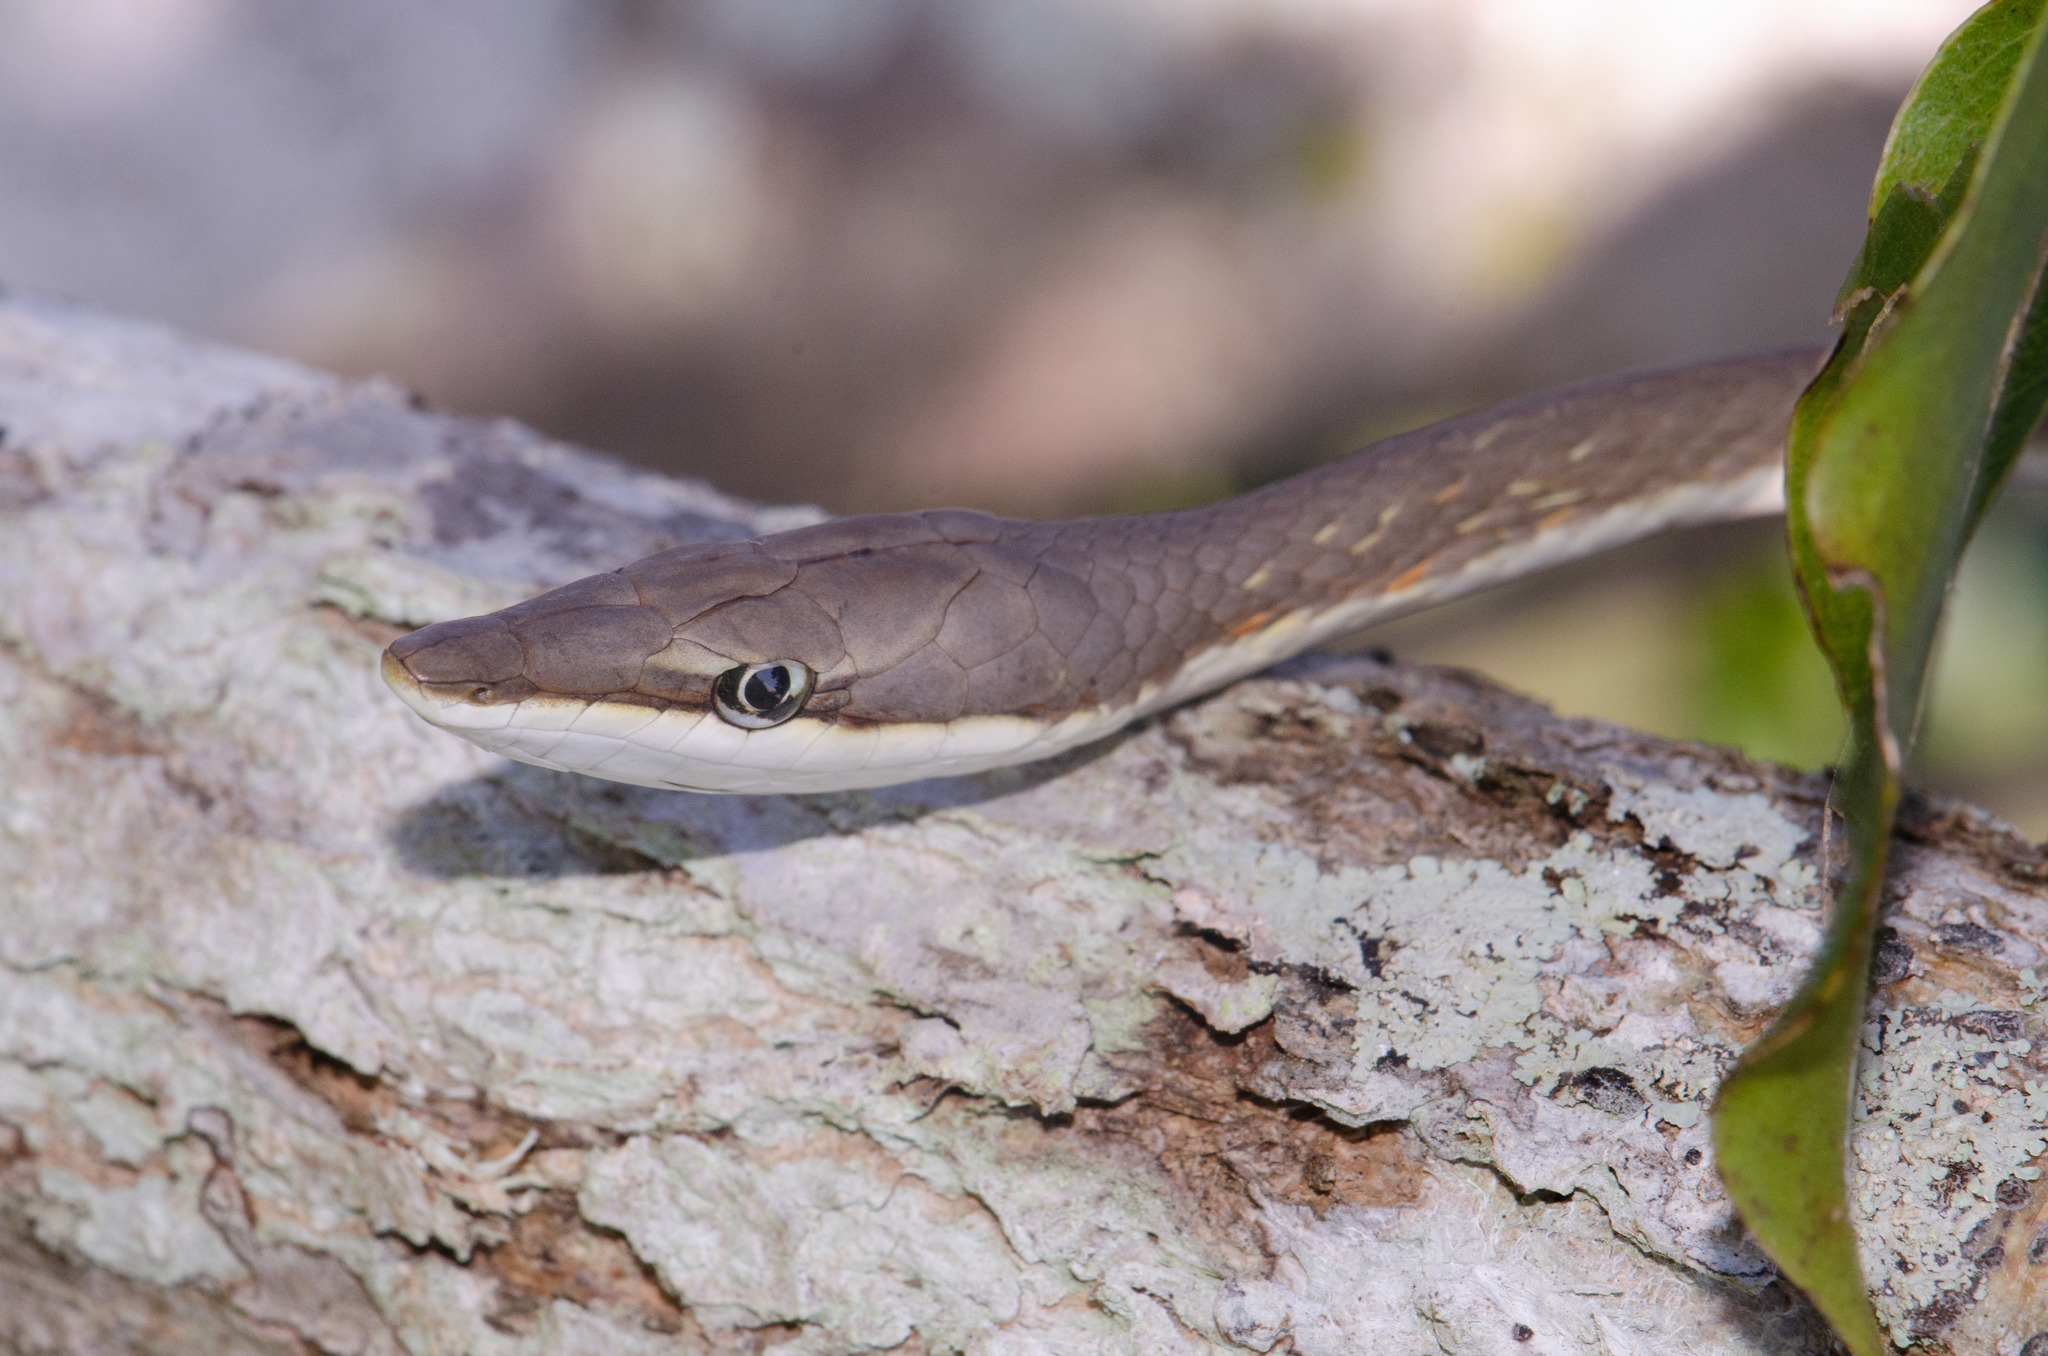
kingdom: Animalia
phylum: Chordata
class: Squamata
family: Colubridae
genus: Oxybelis
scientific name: Oxybelis aeneus
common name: Brown vinesnake
